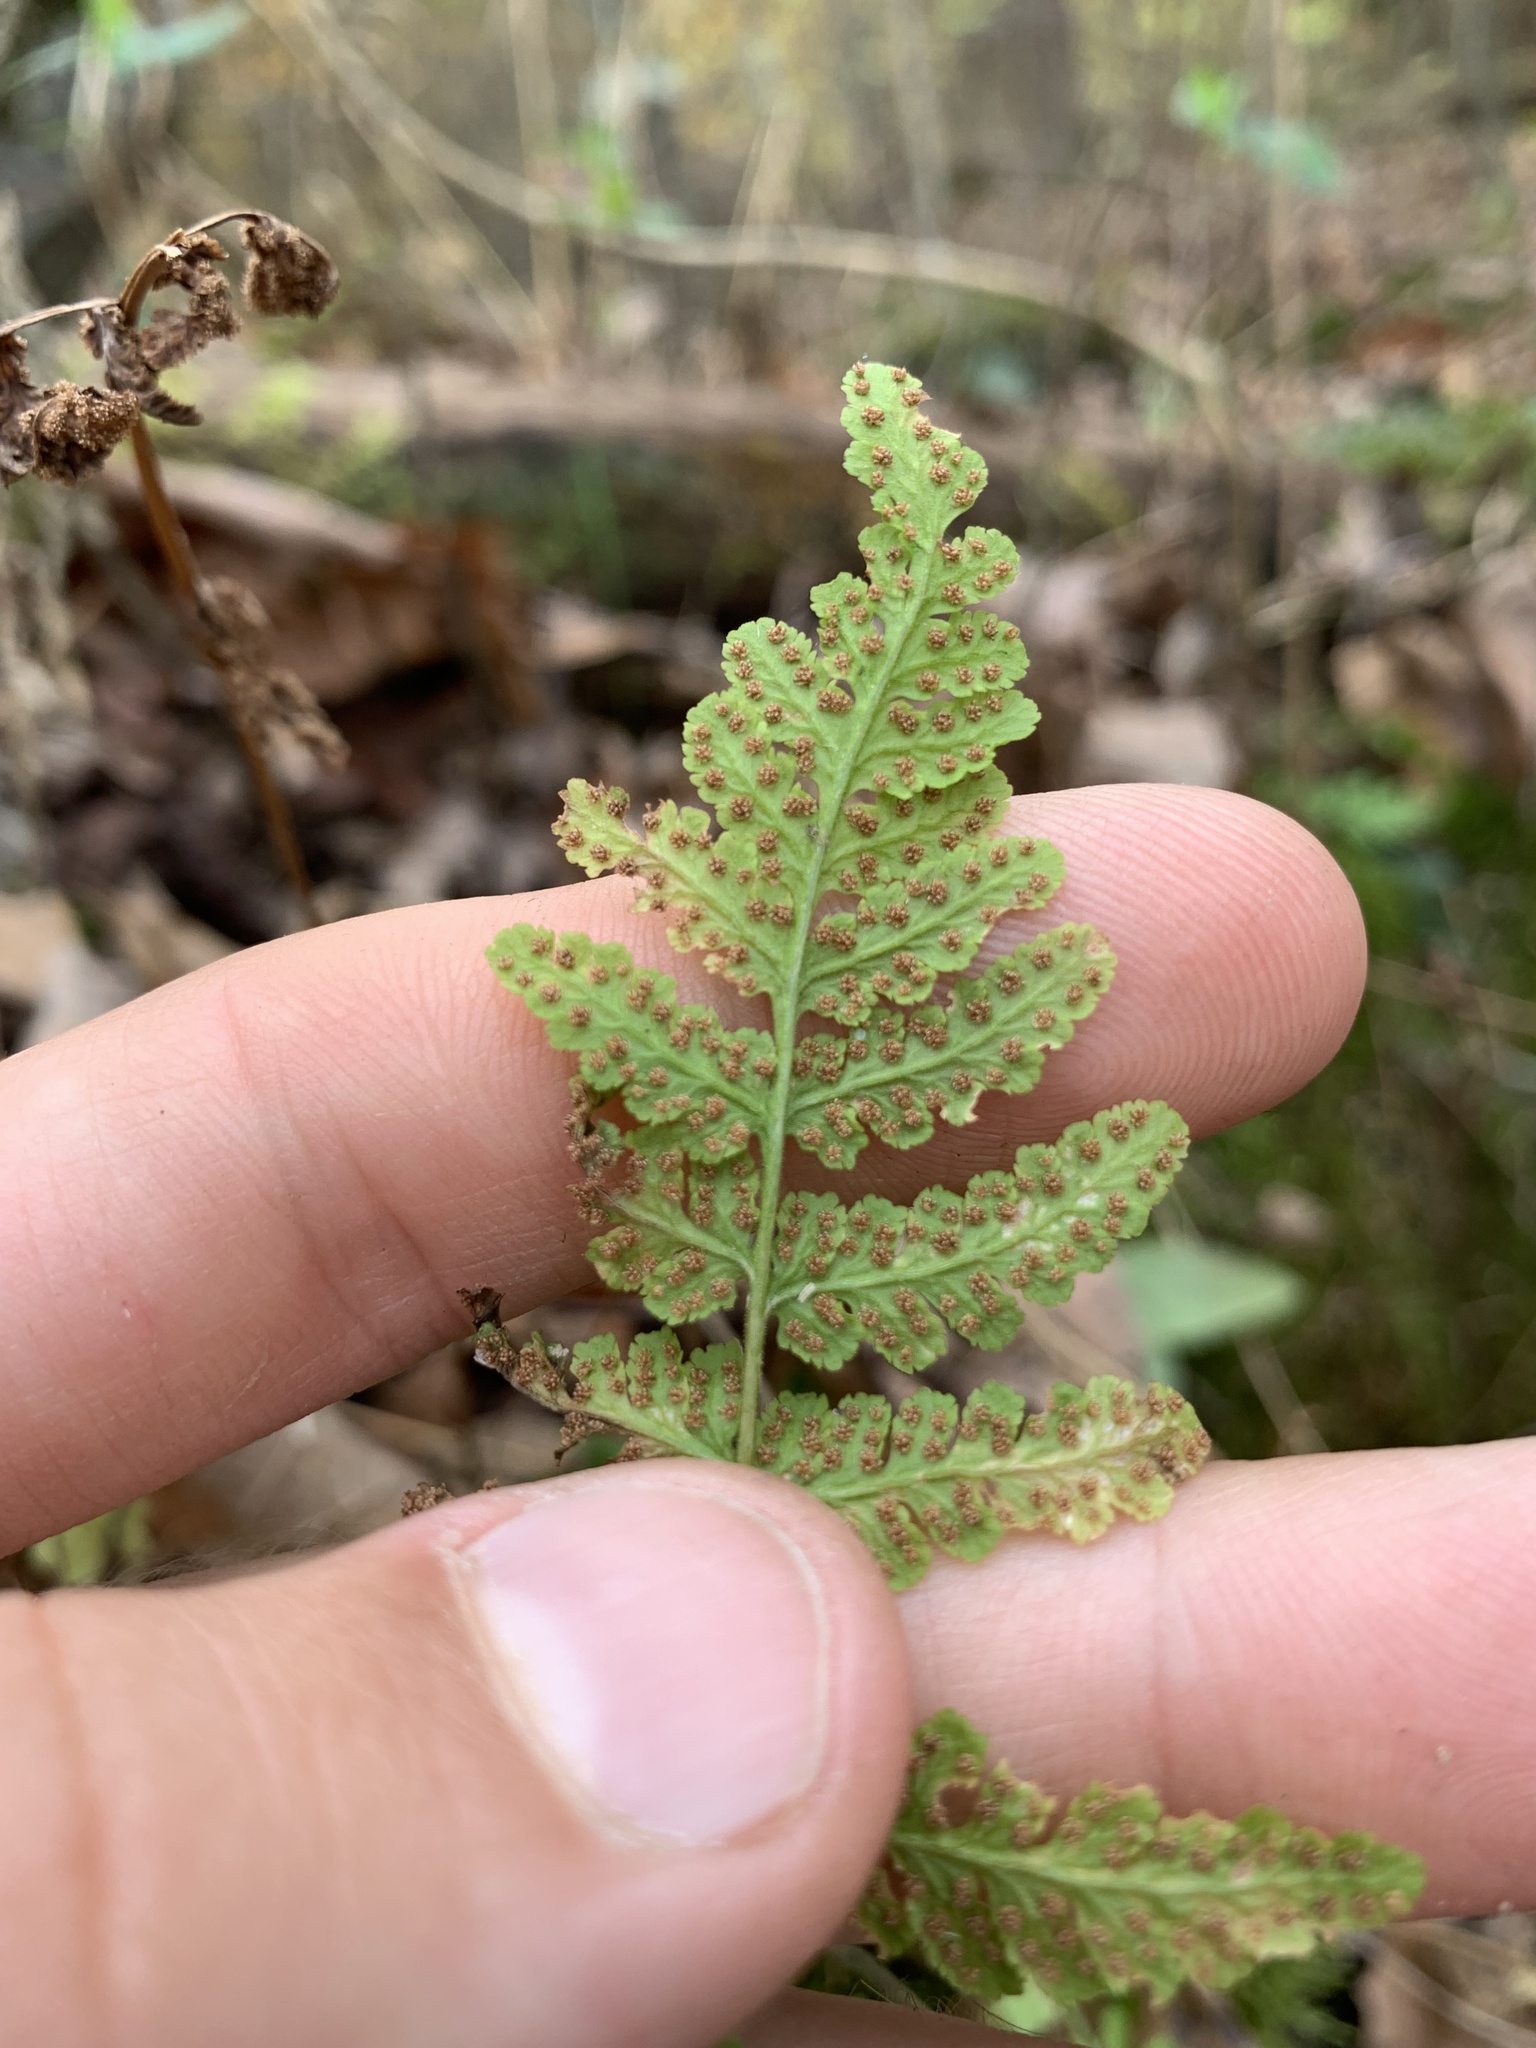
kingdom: Plantae
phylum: Tracheophyta
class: Polypodiopsida
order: Polypodiales
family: Woodsiaceae
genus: Physematium
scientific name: Physematium obtusum
